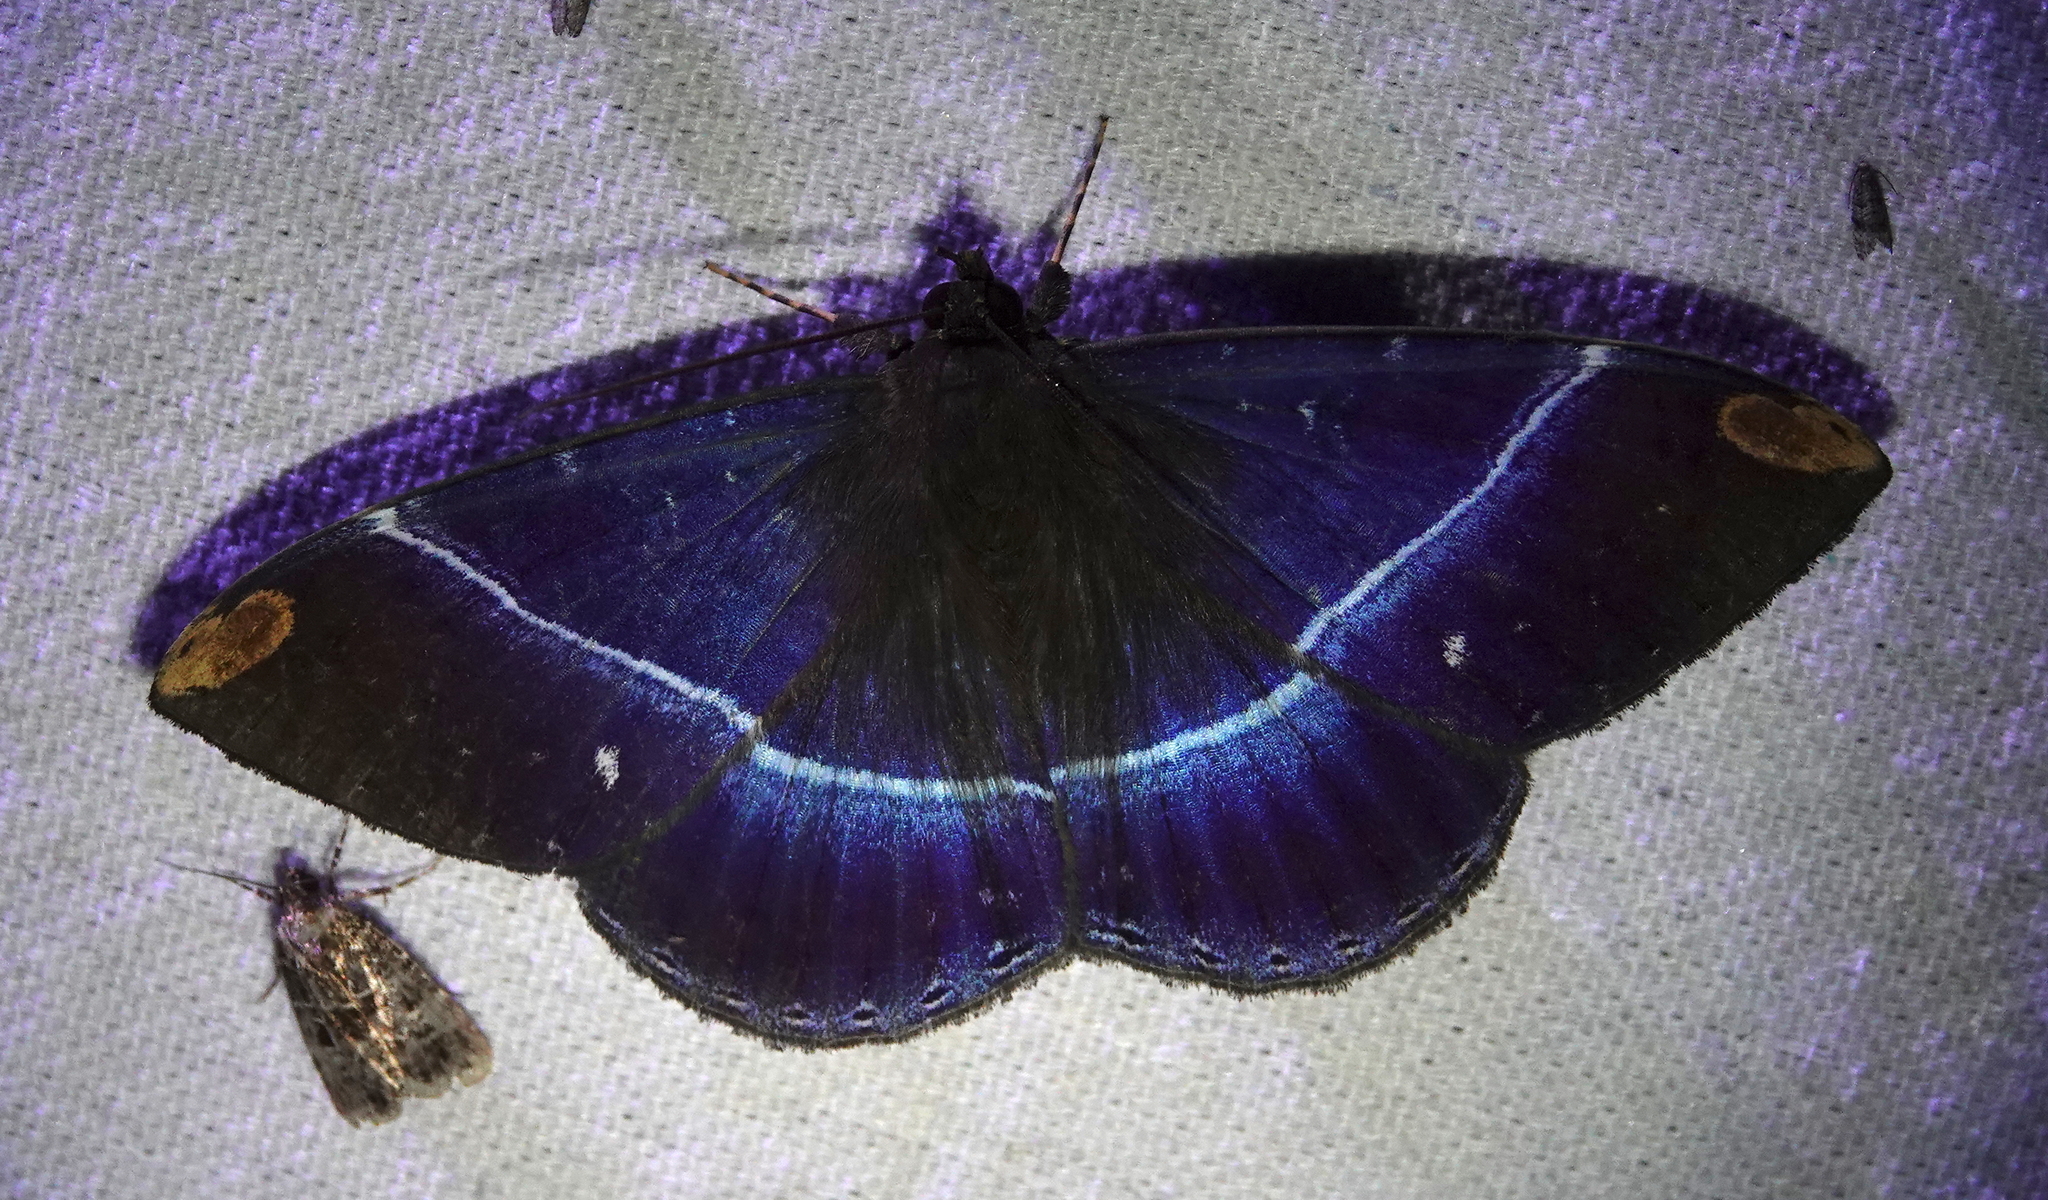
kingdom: Animalia
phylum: Arthropoda
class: Insecta
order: Lepidoptera
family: Erebidae
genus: Hemeroblemma
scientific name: Hemeroblemma
